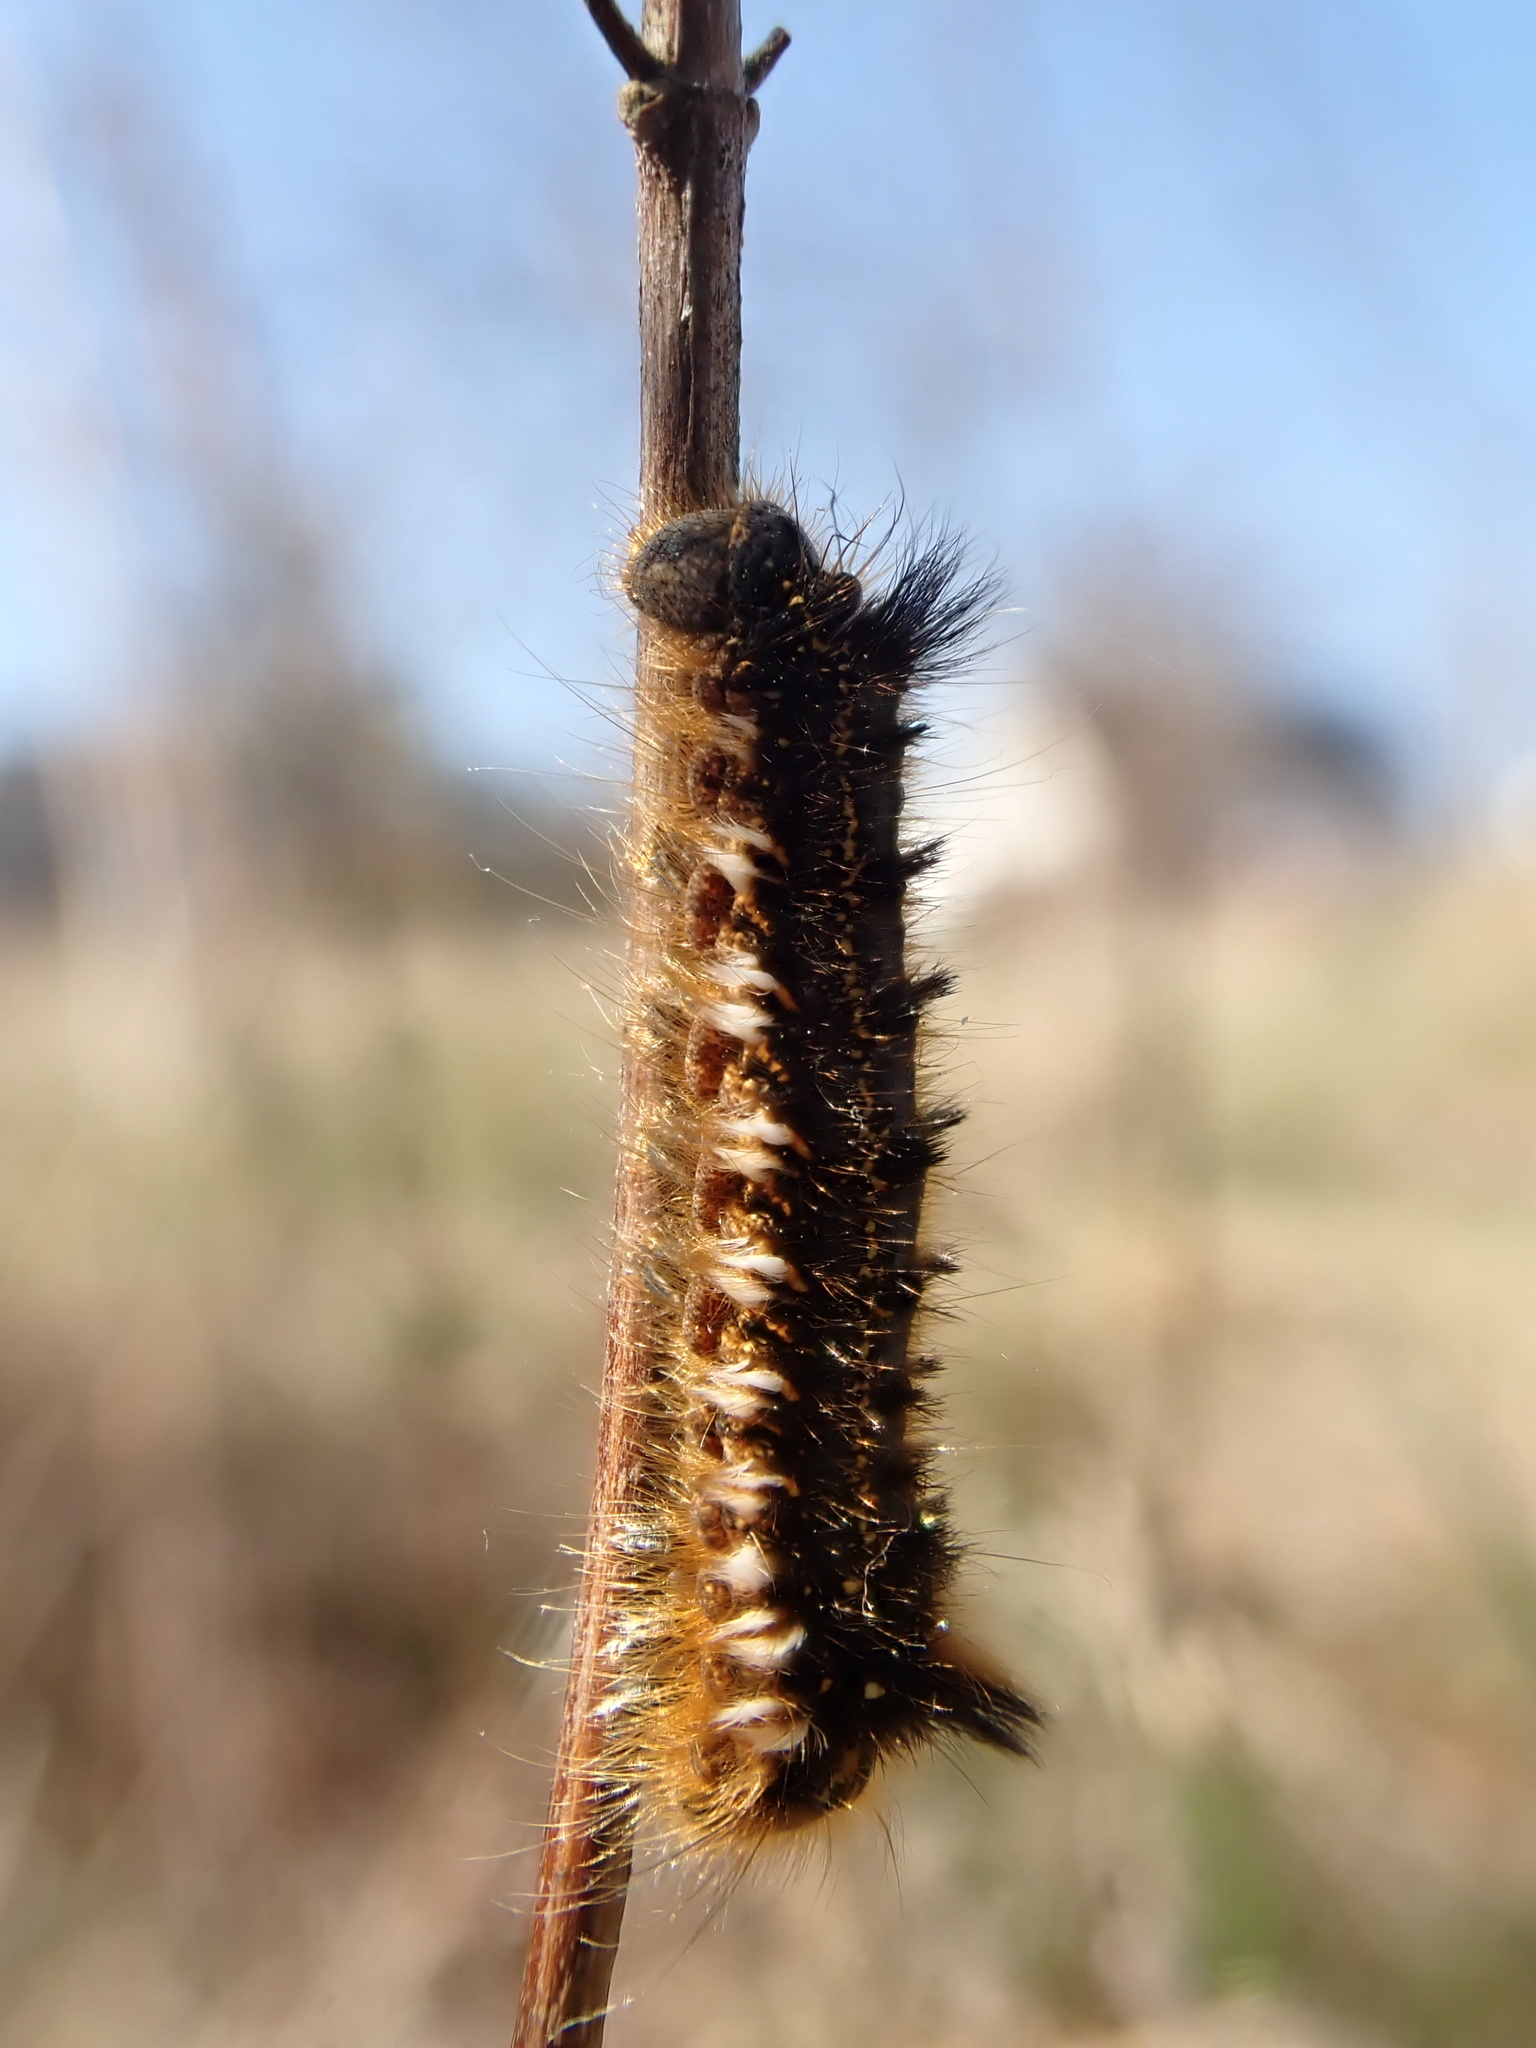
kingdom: Animalia
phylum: Arthropoda
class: Insecta
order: Lepidoptera
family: Lasiocampidae
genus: Euthrix
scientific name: Euthrix potatoria
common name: Drinker
